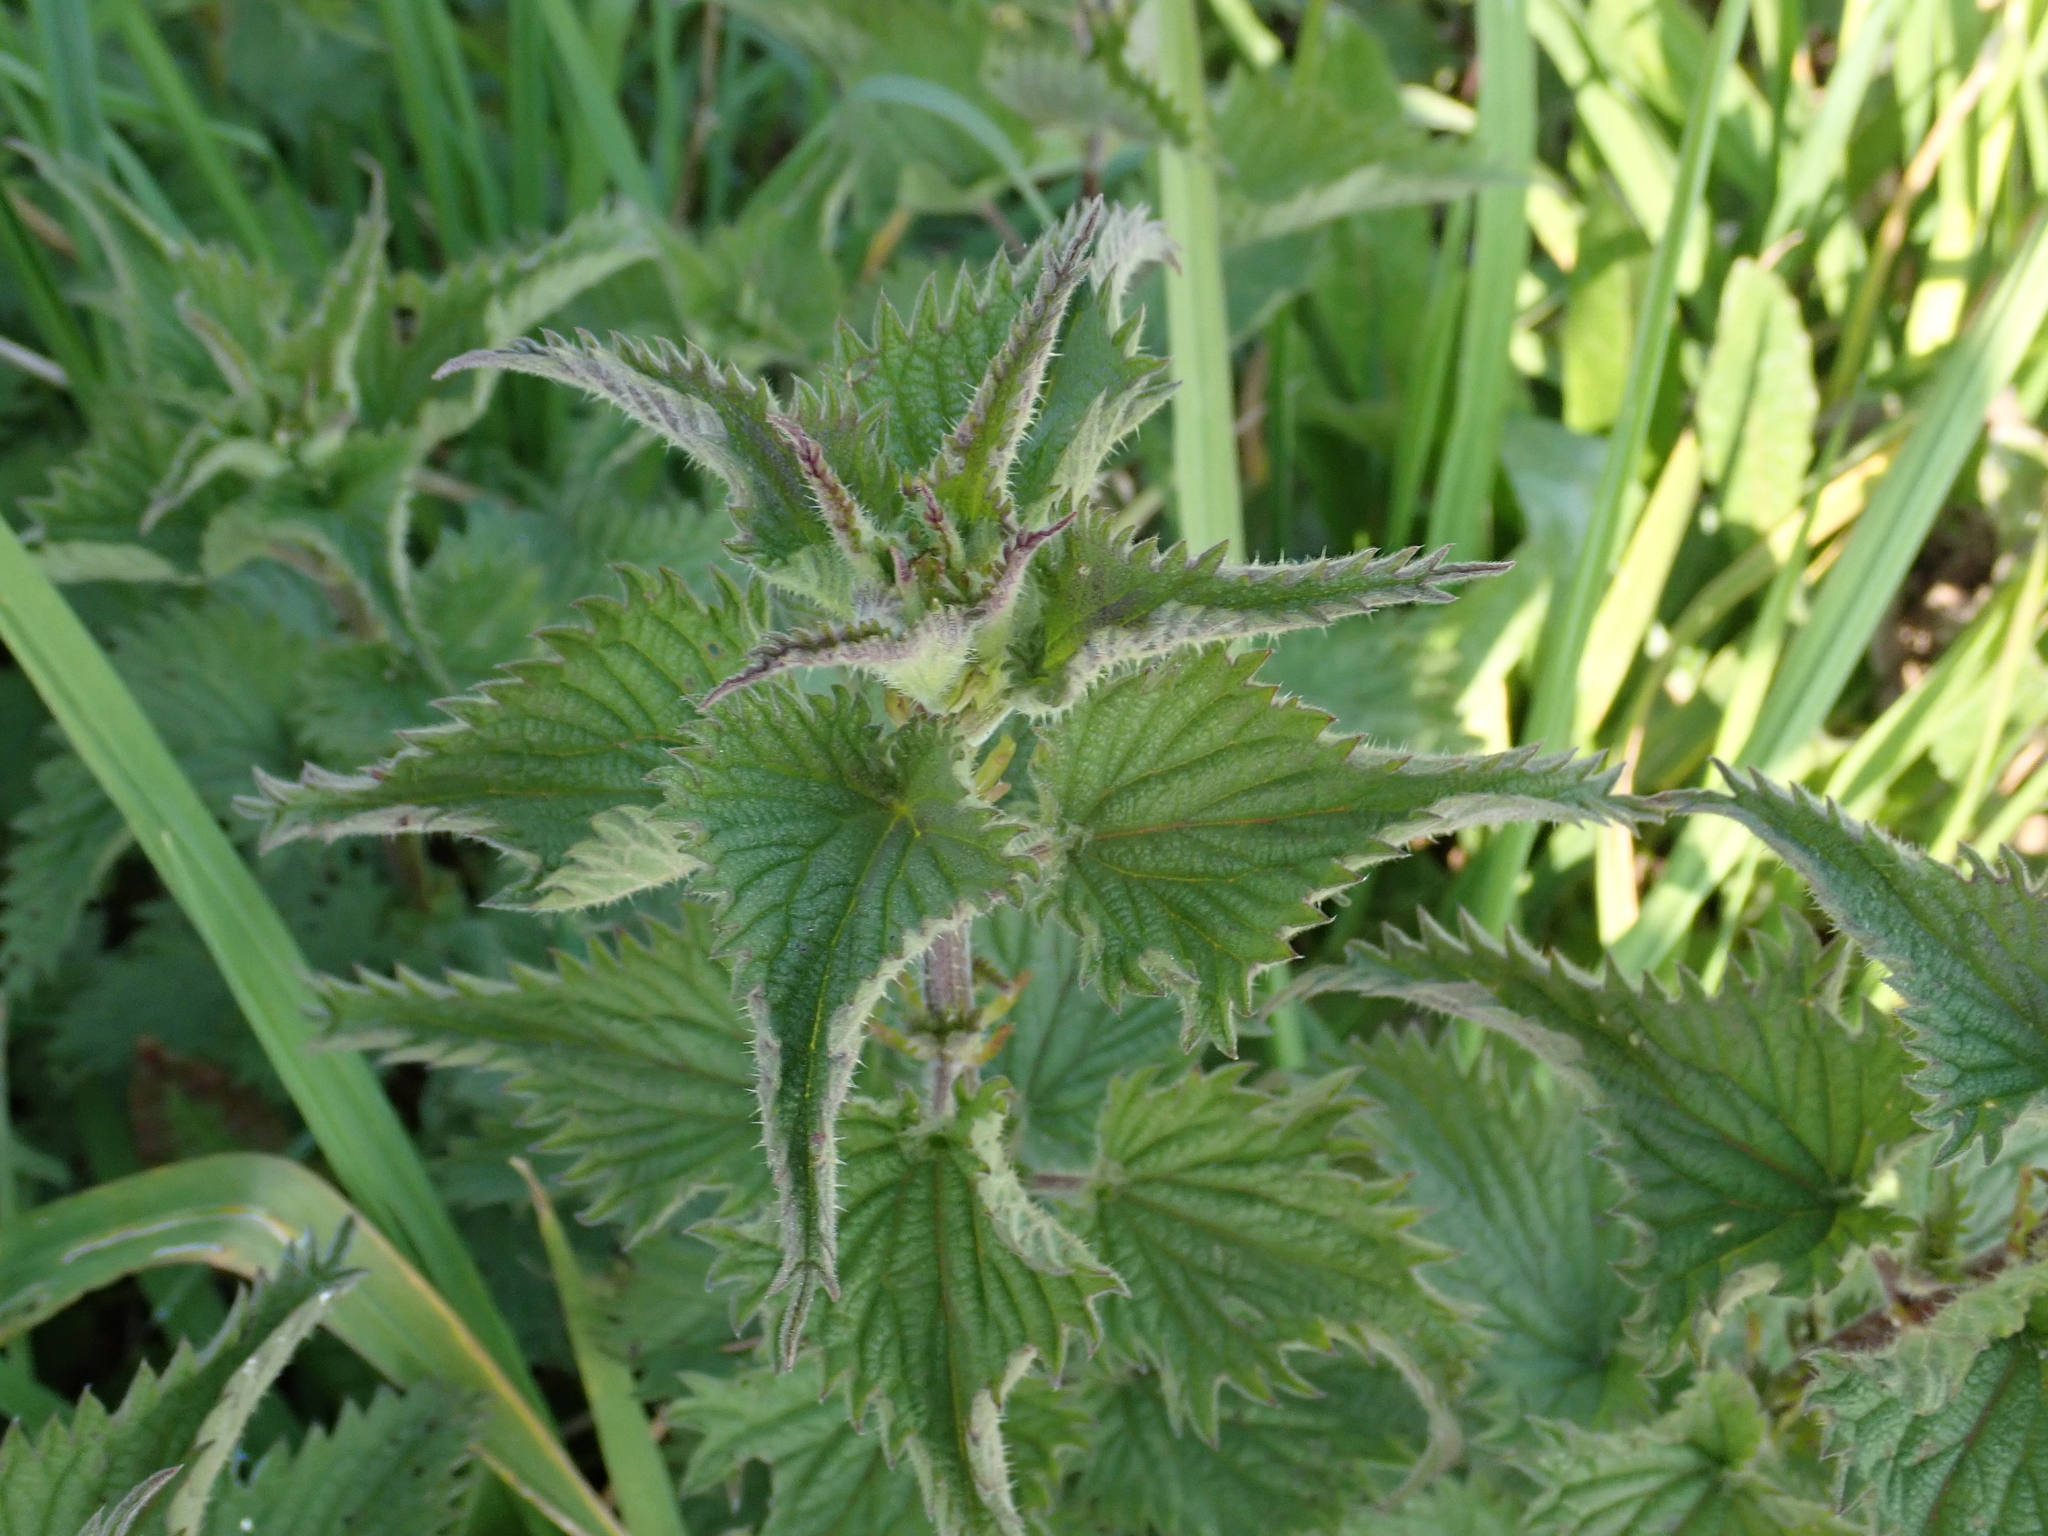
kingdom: Plantae
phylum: Tracheophyta
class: Magnoliopsida
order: Rosales
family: Urticaceae
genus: Urtica
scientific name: Urtica dioica
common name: Common nettle
